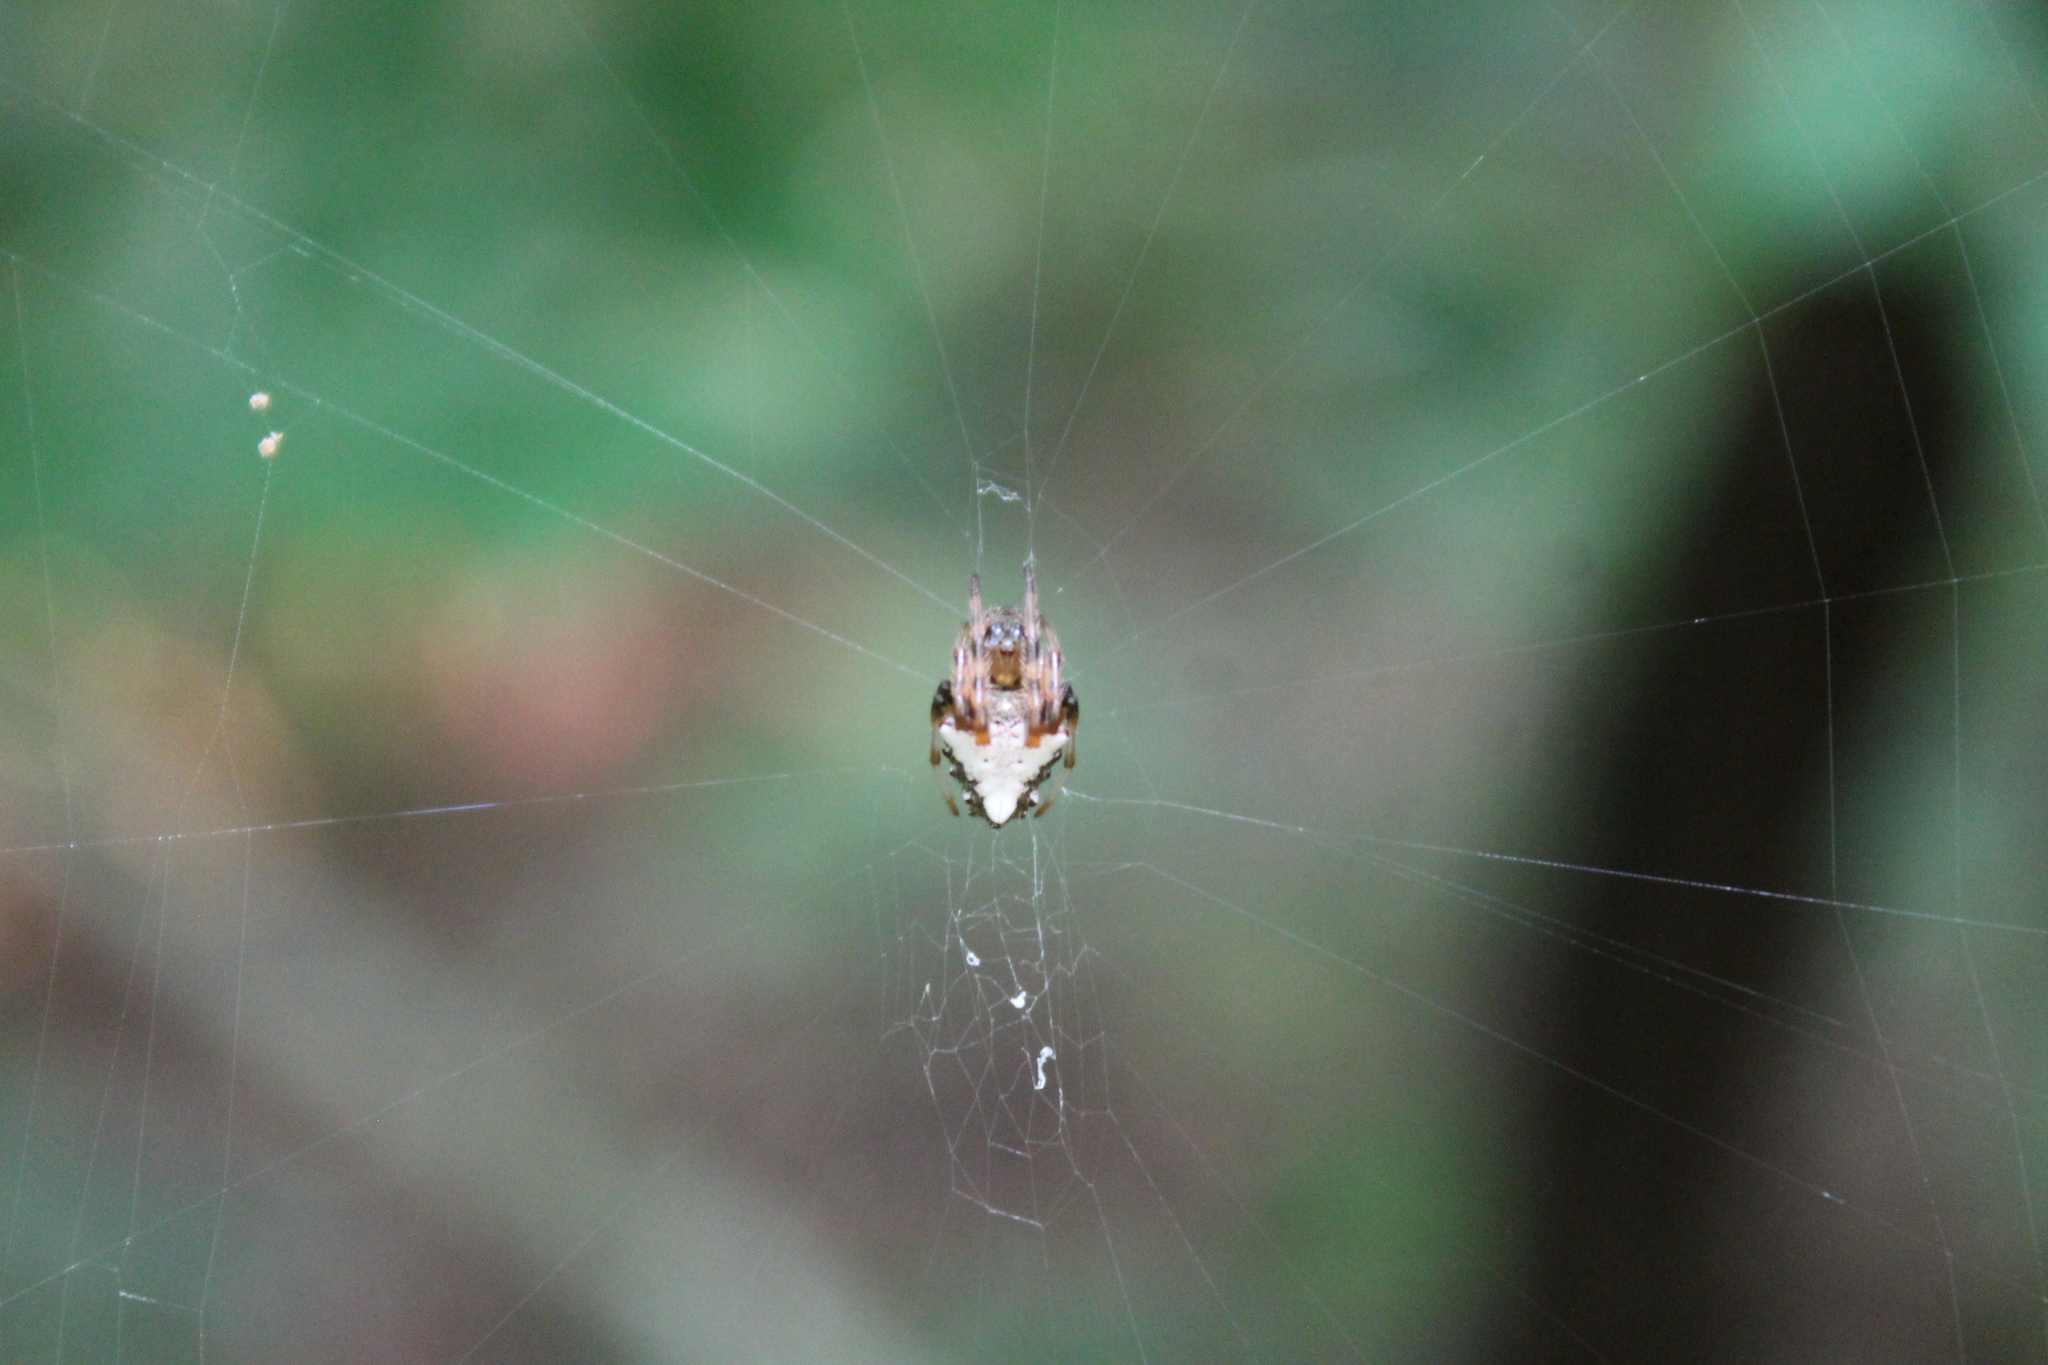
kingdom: Animalia
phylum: Arthropoda
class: Arachnida
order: Araneae
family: Araneidae
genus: Verrucosa
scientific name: Verrucosa arenata
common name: Orb weavers
